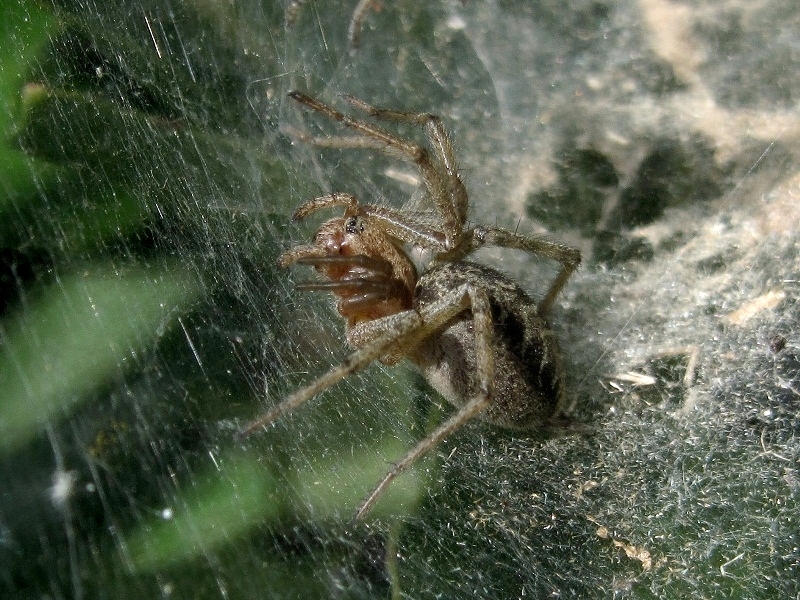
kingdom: Animalia
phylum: Arthropoda
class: Arachnida
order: Araneae
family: Agelenidae
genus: Agelena
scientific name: Agelena labyrinthica
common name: Labyrinth spider
